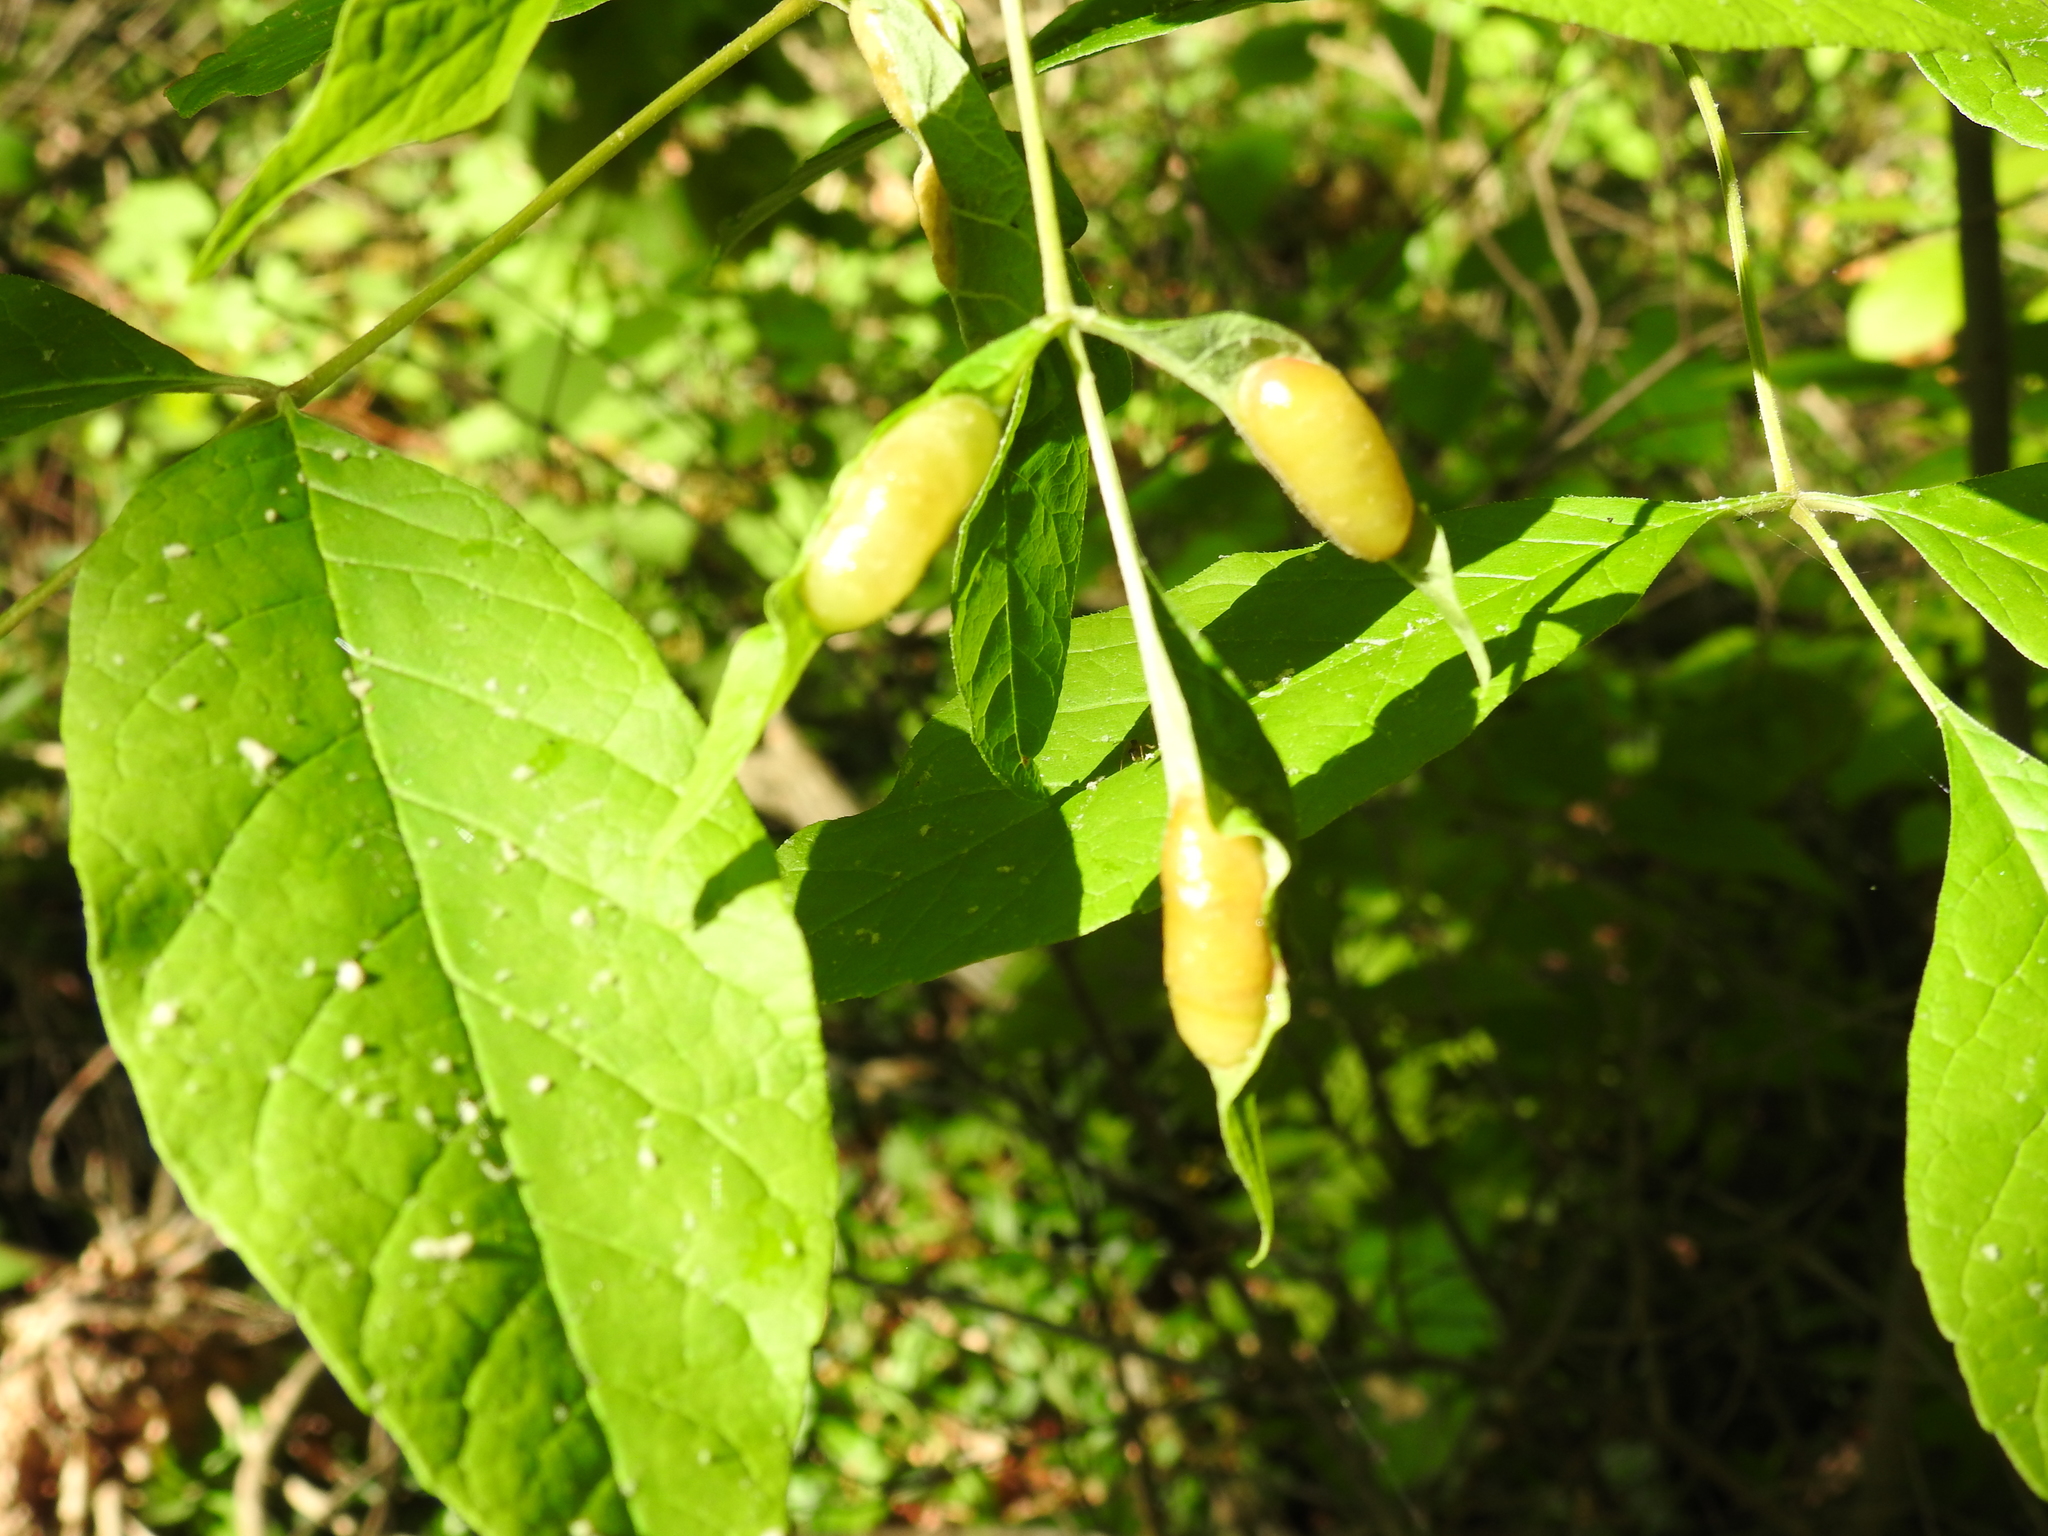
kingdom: Animalia
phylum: Arthropoda
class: Insecta
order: Diptera
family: Cecidomyiidae
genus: Dasineura
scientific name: Dasineura tumidosae
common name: Ash petiole gall midge
